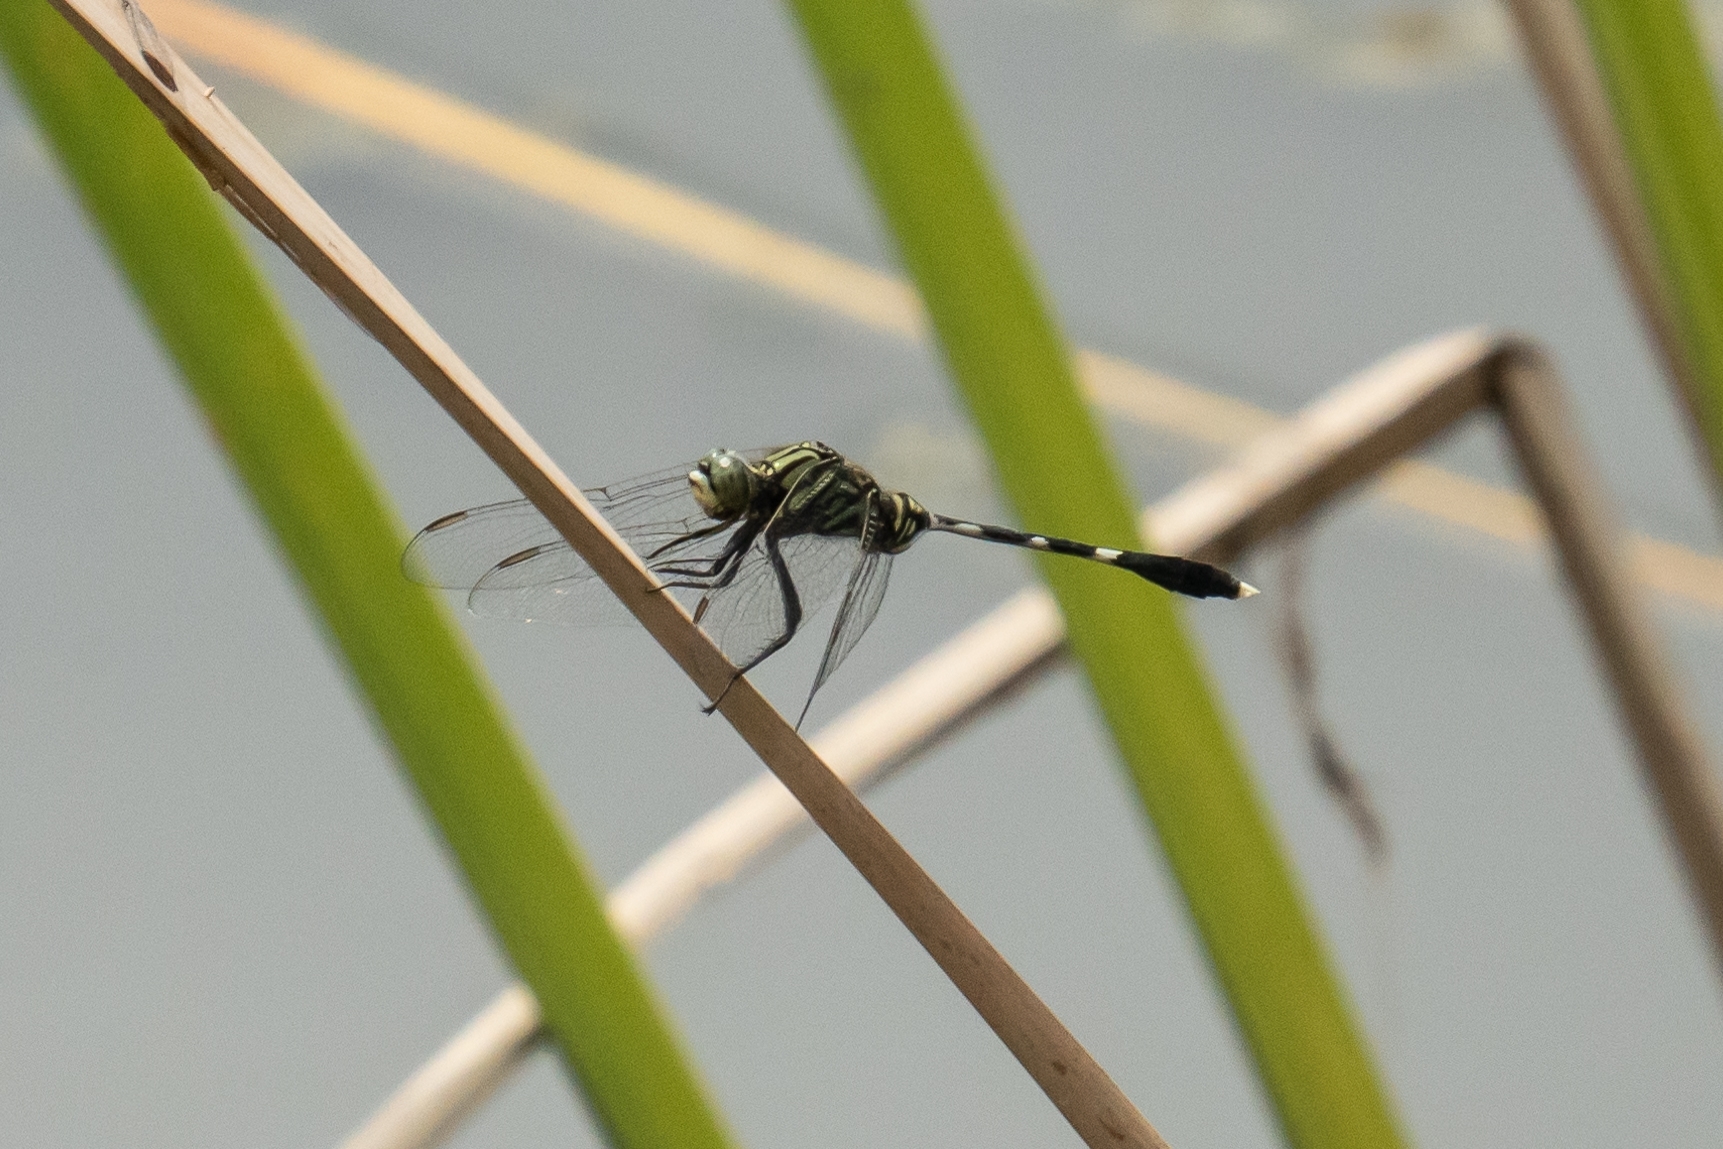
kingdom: Animalia
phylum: Arthropoda
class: Insecta
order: Odonata
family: Libellulidae
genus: Orthetrum
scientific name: Orthetrum sabina
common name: Slender skimmer
